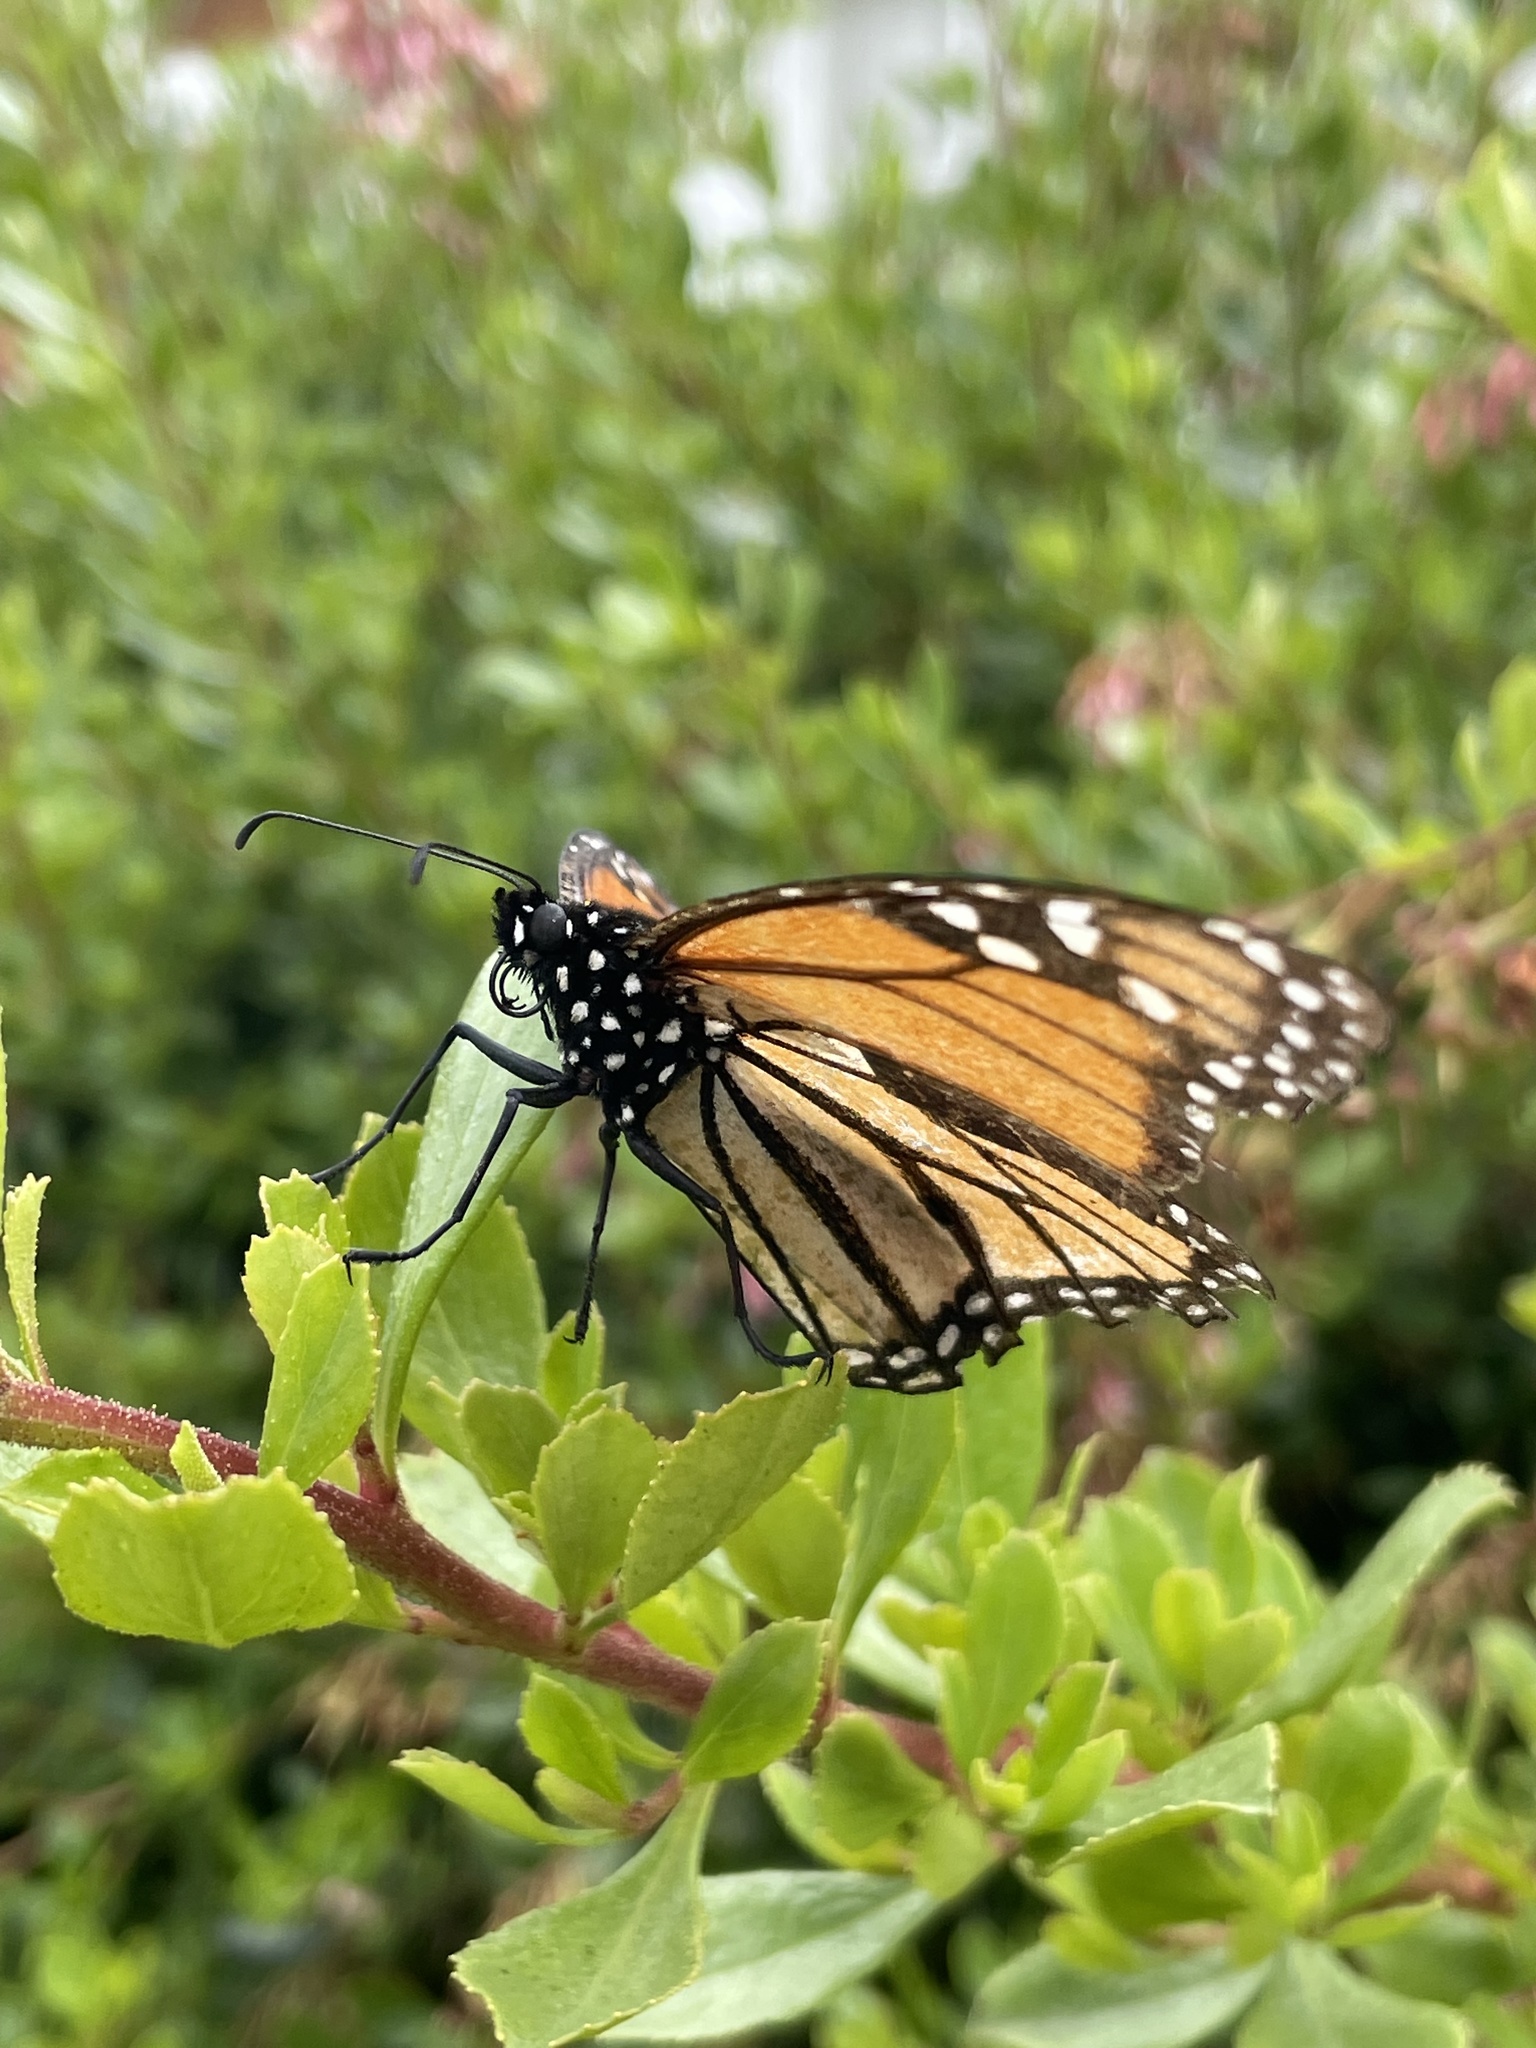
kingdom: Animalia
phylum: Arthropoda
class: Insecta
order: Lepidoptera
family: Nymphalidae
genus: Danaus
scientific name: Danaus plexippus
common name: Monarch
